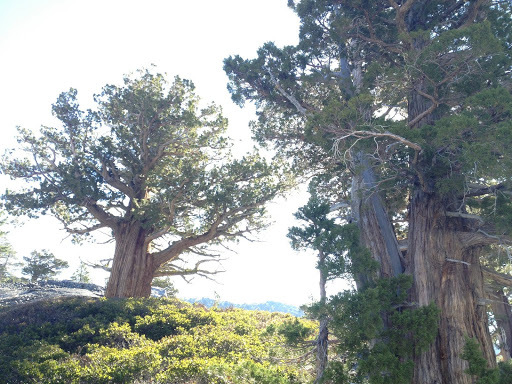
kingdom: Plantae
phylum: Tracheophyta
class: Pinopsida
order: Pinales
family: Cupressaceae
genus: Juniperus
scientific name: Juniperus occidentalis
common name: Western juniper
